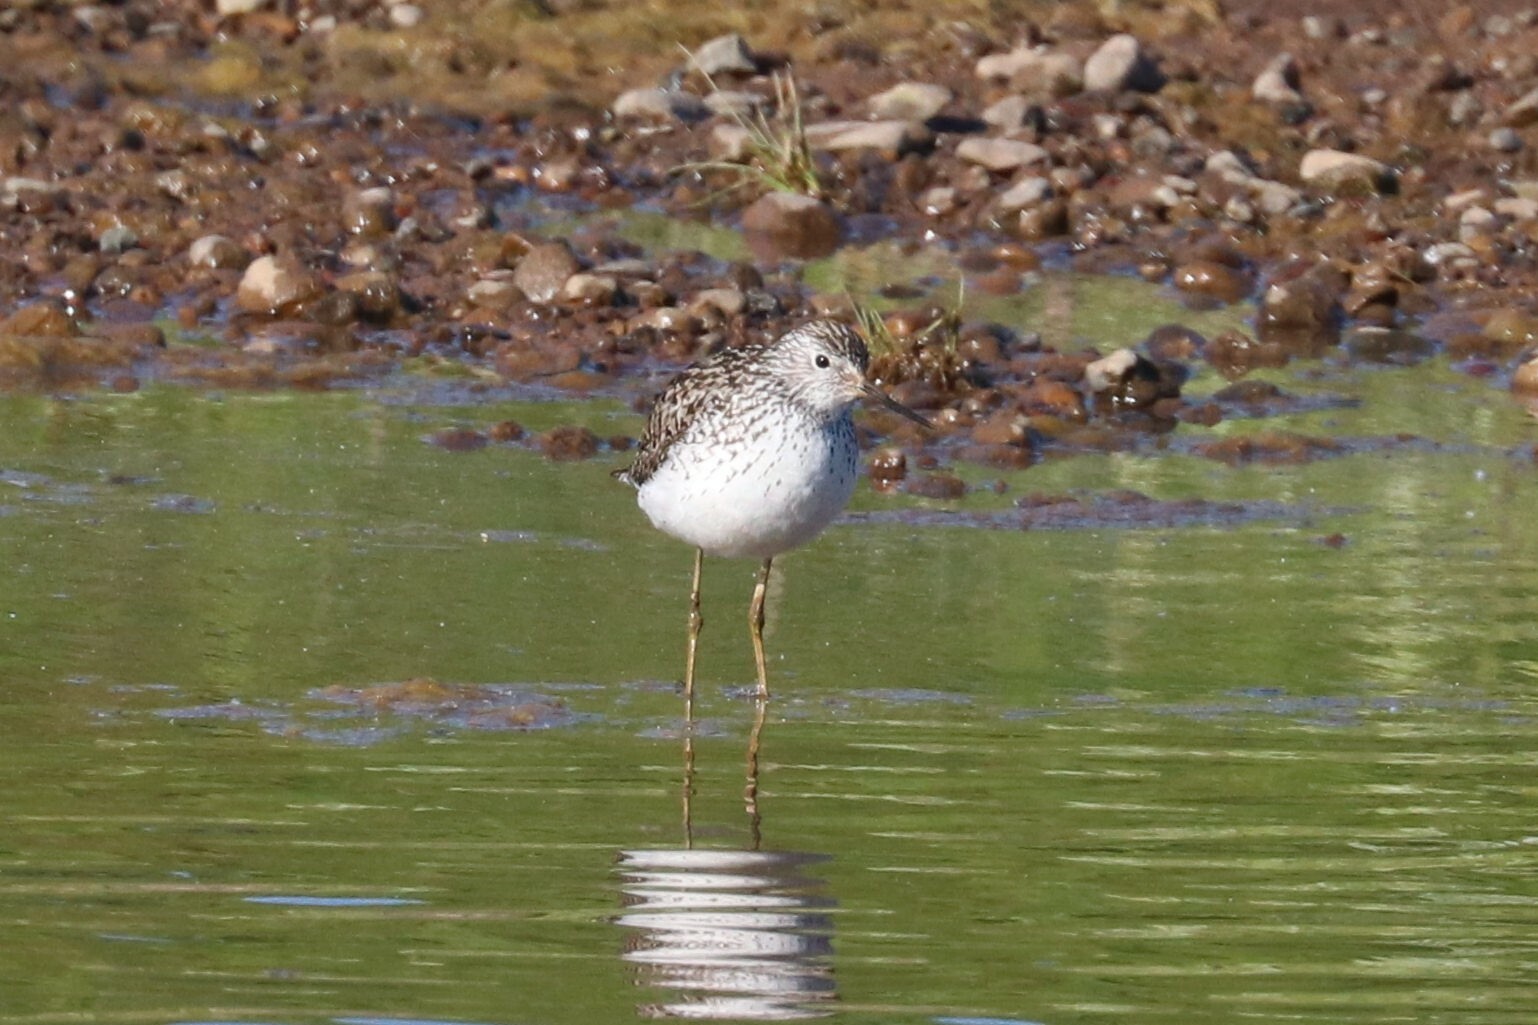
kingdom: Animalia
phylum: Chordata
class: Aves
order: Charadriiformes
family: Scolopacidae
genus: Tringa
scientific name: Tringa stagnatilis
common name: Marsh sandpiper
